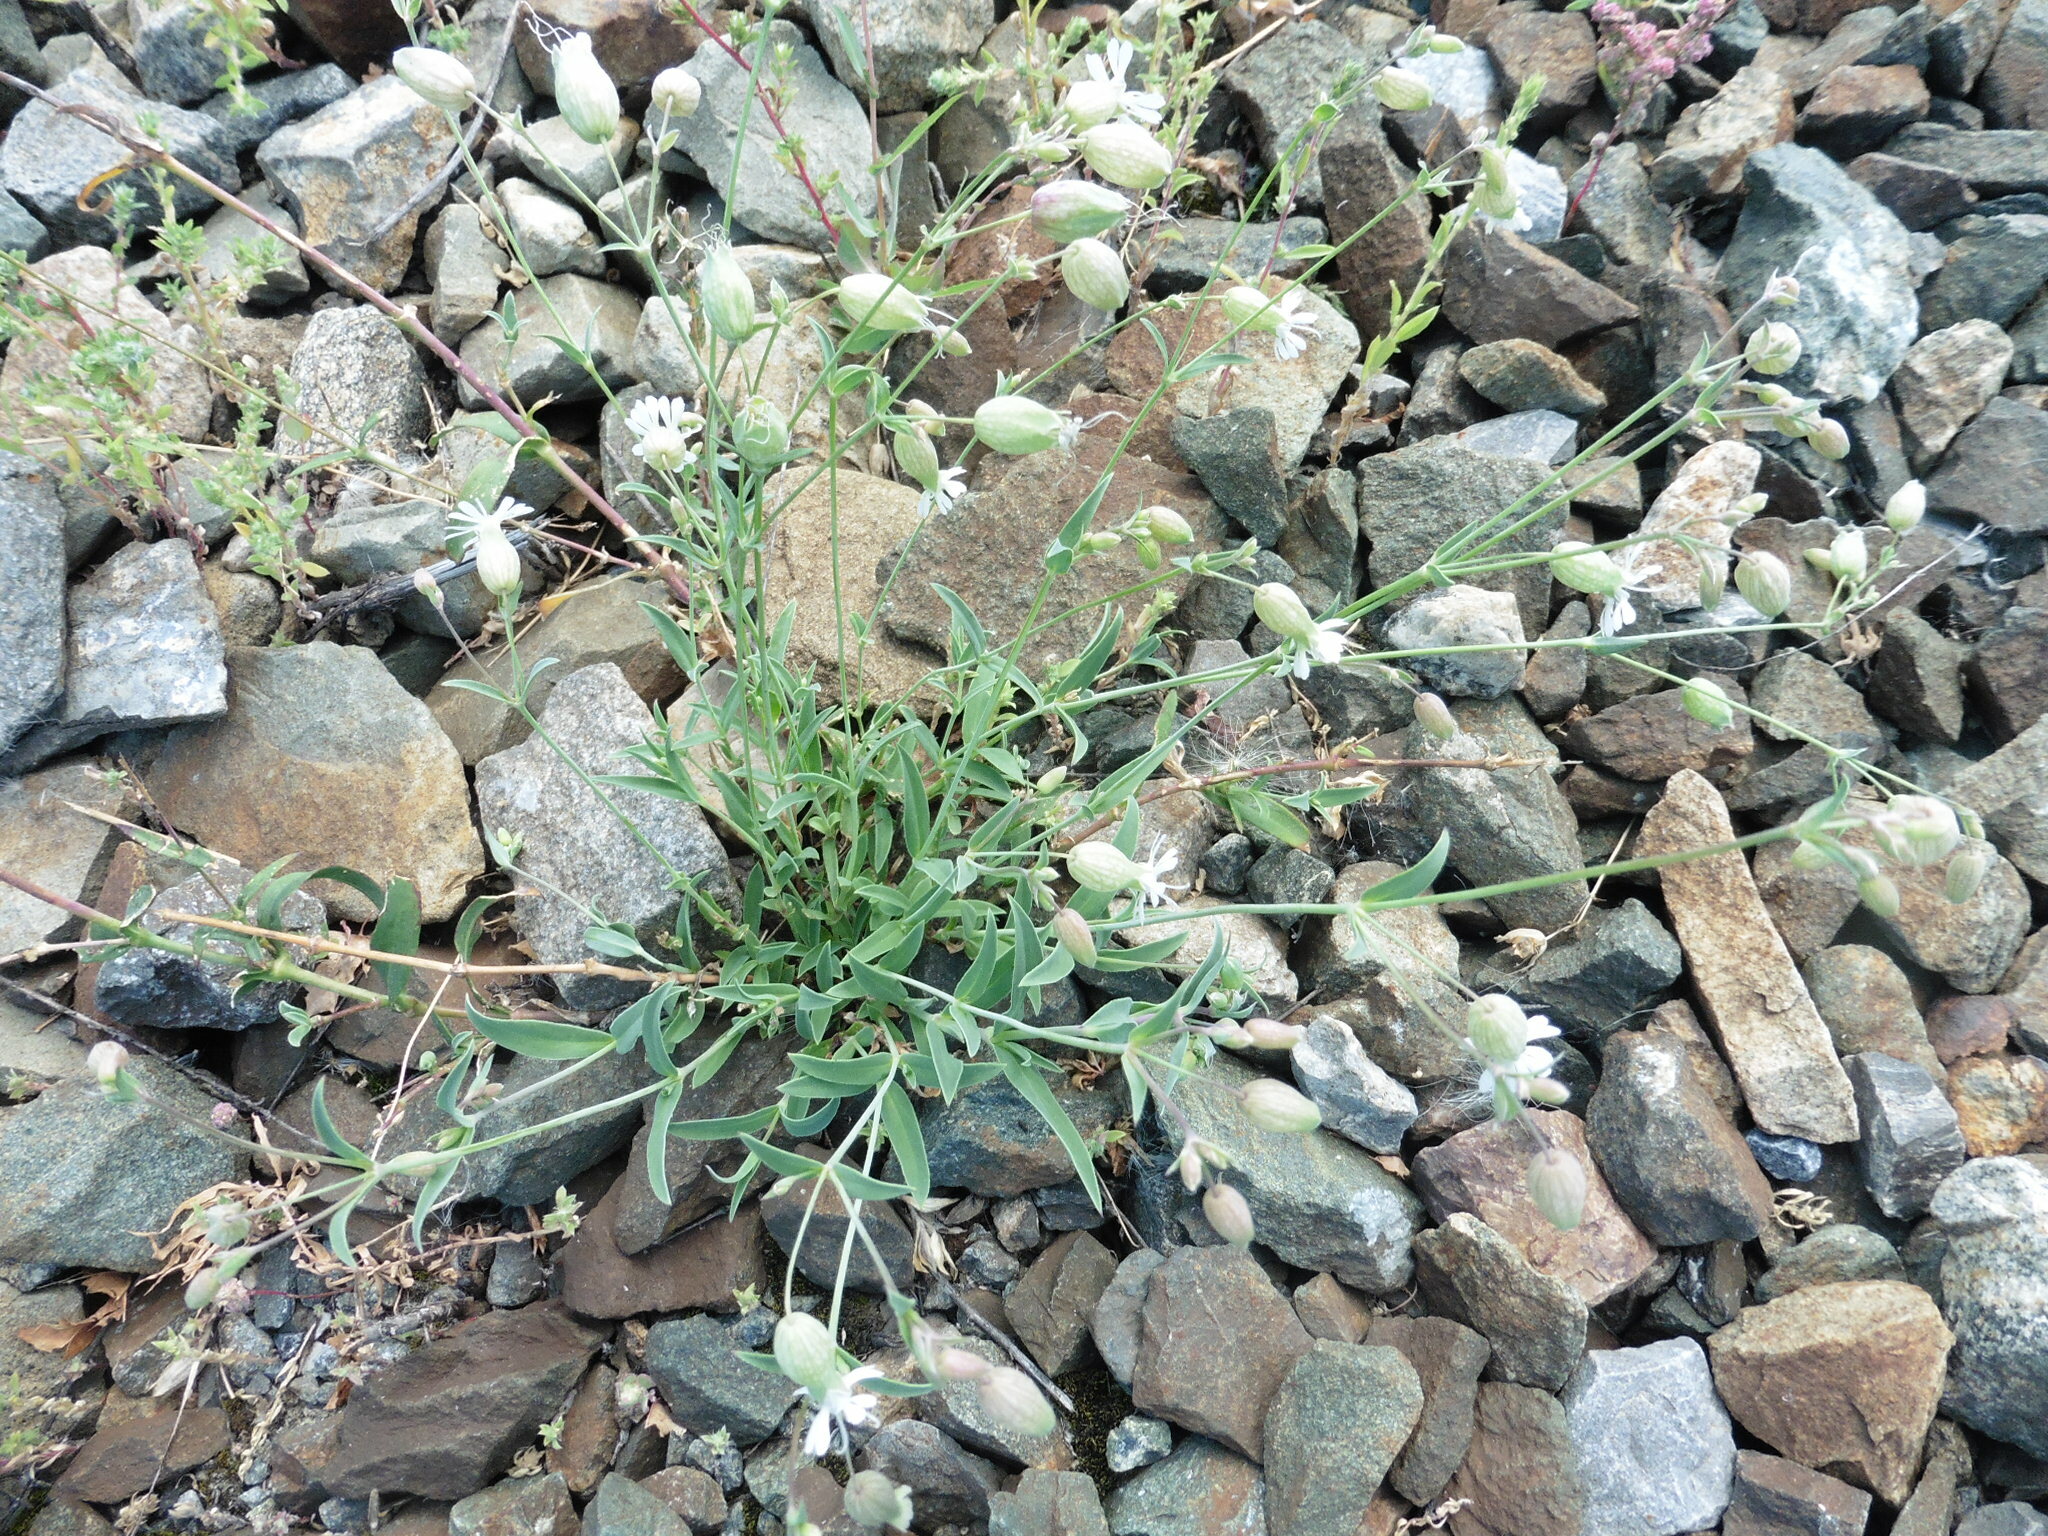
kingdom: Plantae
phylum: Tracheophyta
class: Magnoliopsida
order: Caryophyllales
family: Caryophyllaceae
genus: Silene
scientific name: Silene vulgaris
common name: Bladder campion
